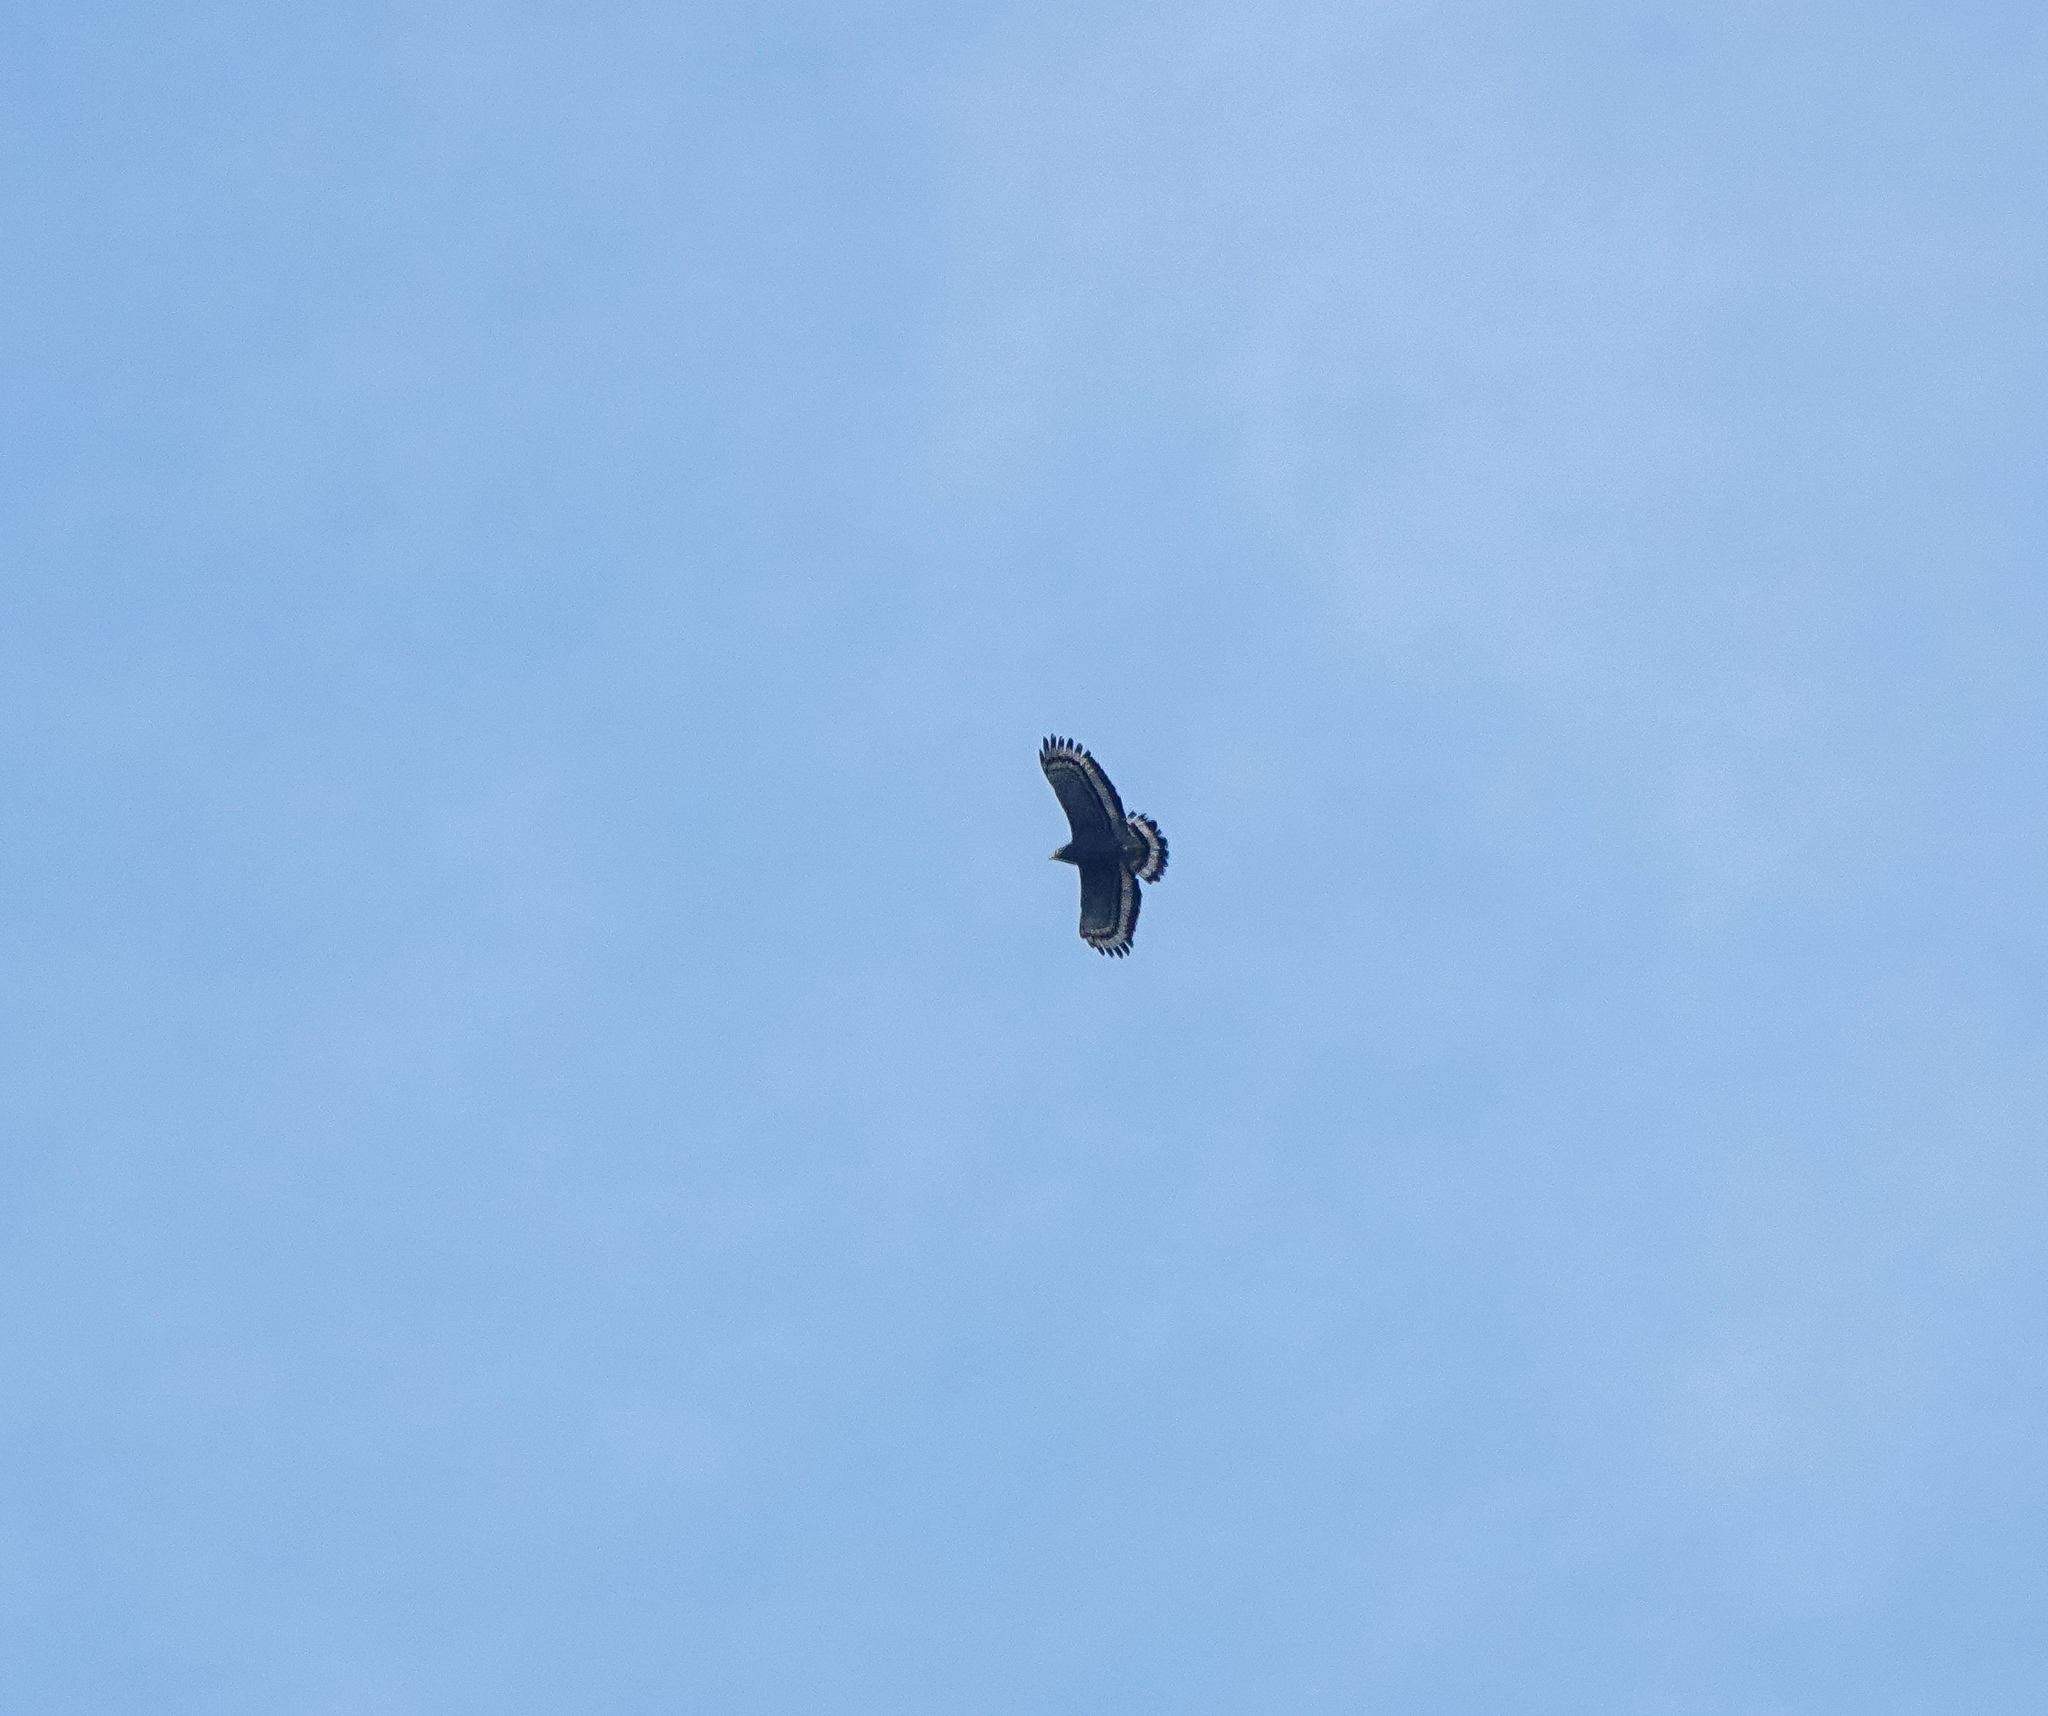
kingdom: Animalia
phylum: Chordata
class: Aves
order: Accipitriformes
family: Accipitridae
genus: Spilornis
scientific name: Spilornis cheela
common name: Crested serpent eagle
